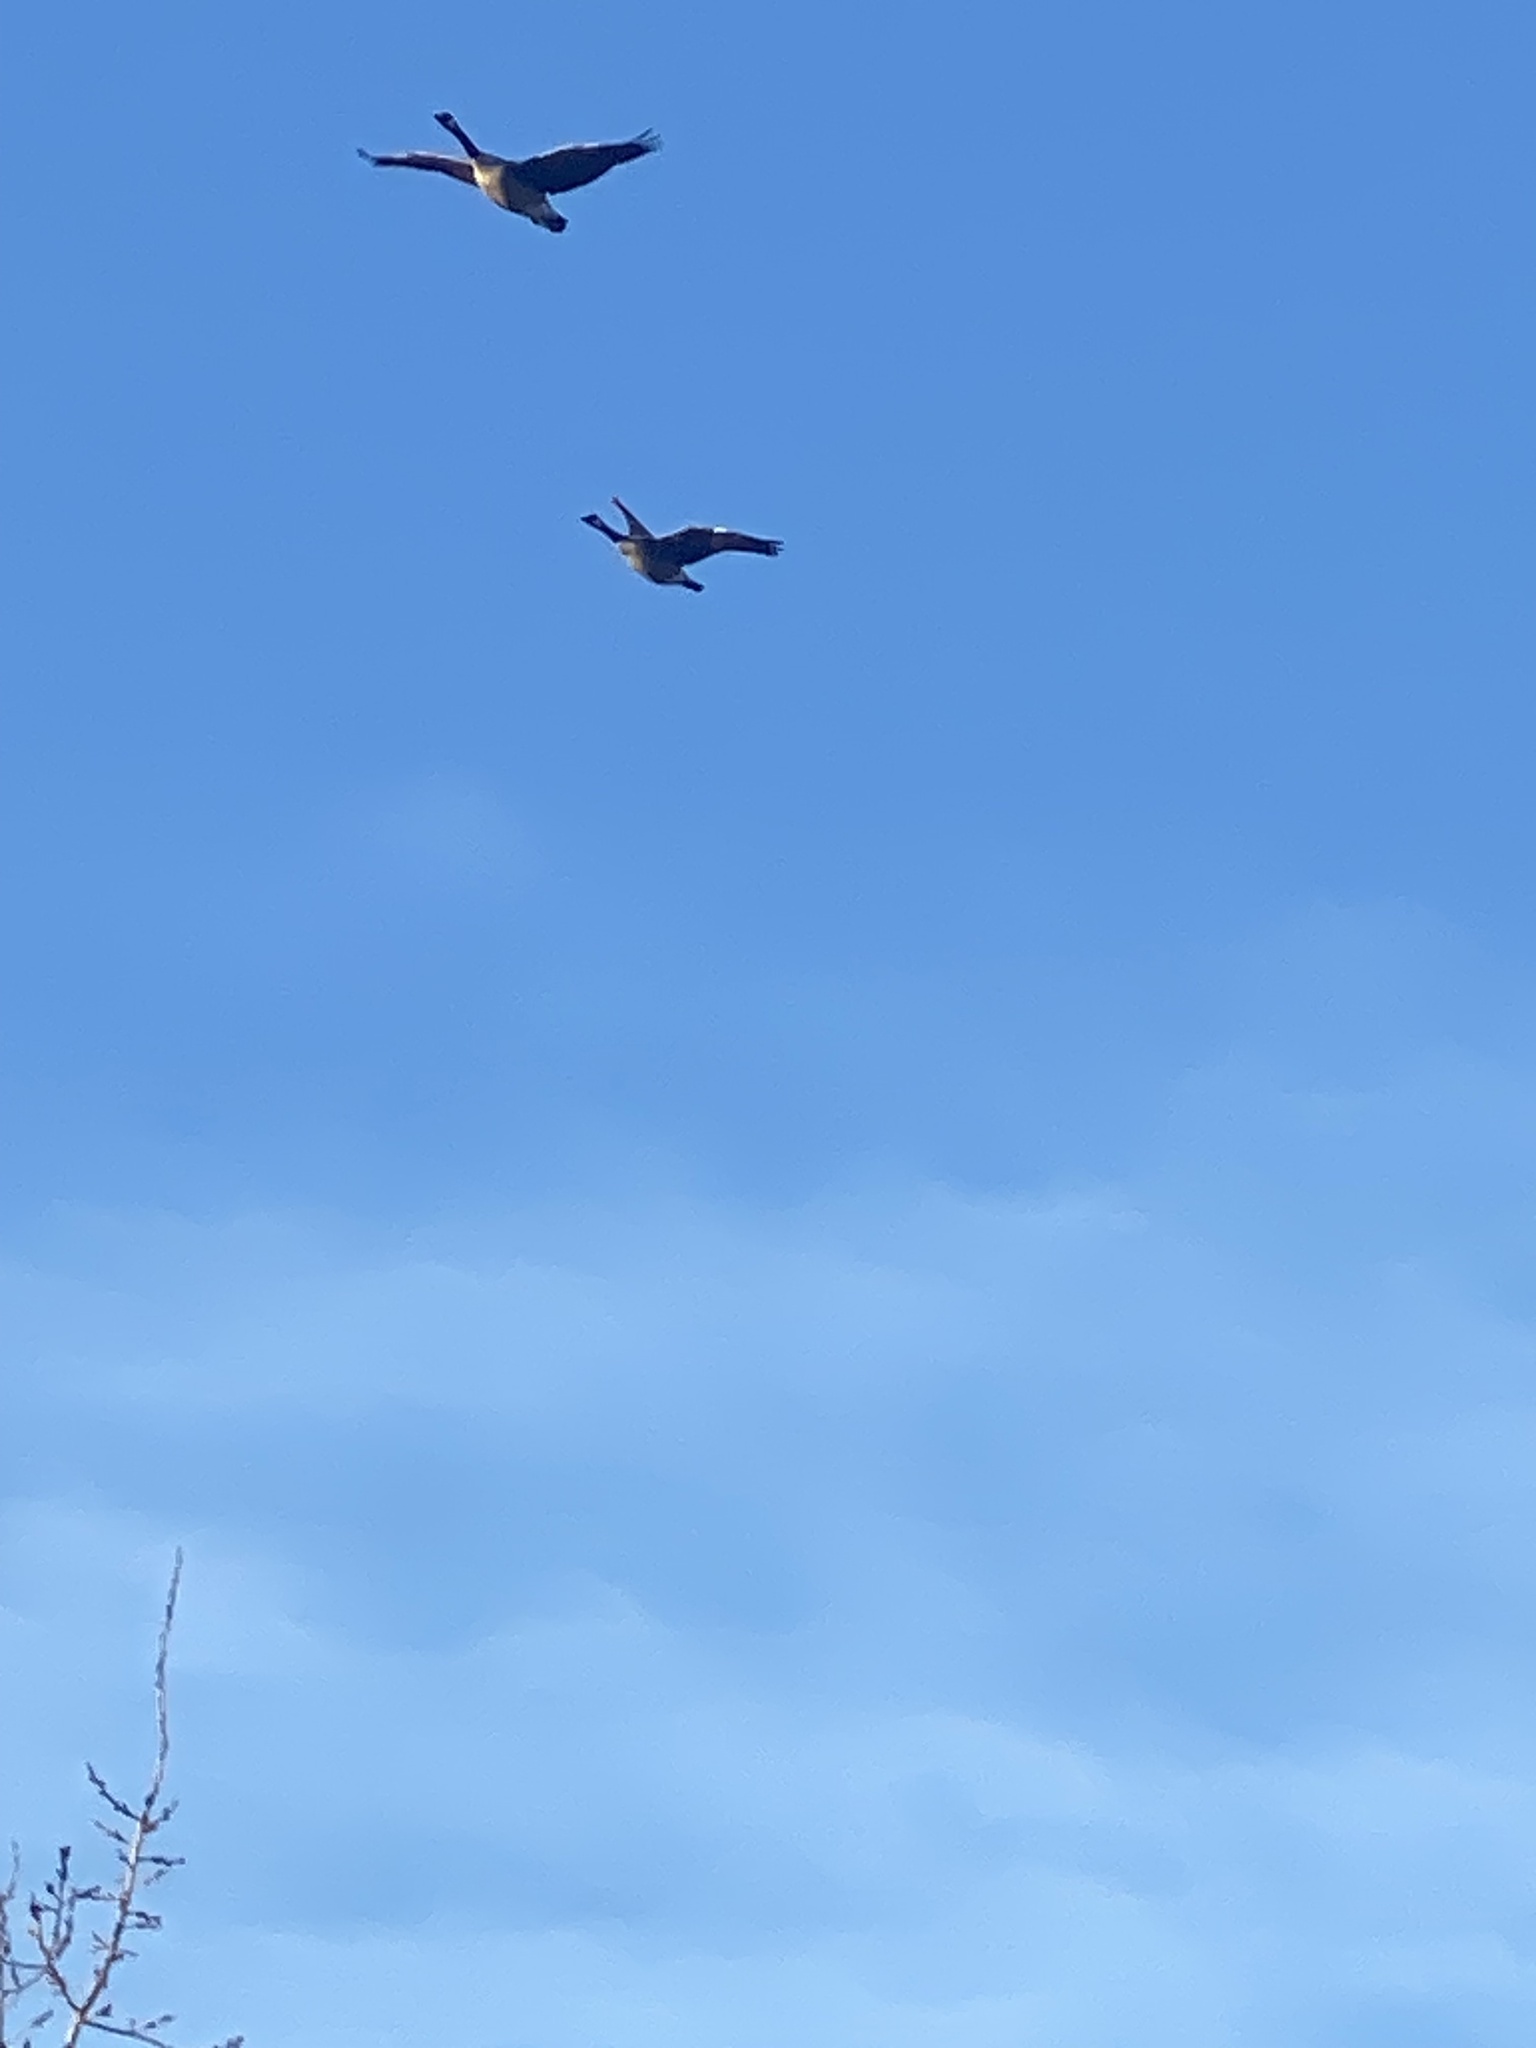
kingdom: Animalia
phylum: Chordata
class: Aves
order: Anseriformes
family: Anatidae
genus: Branta
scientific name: Branta canadensis
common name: Canada goose
